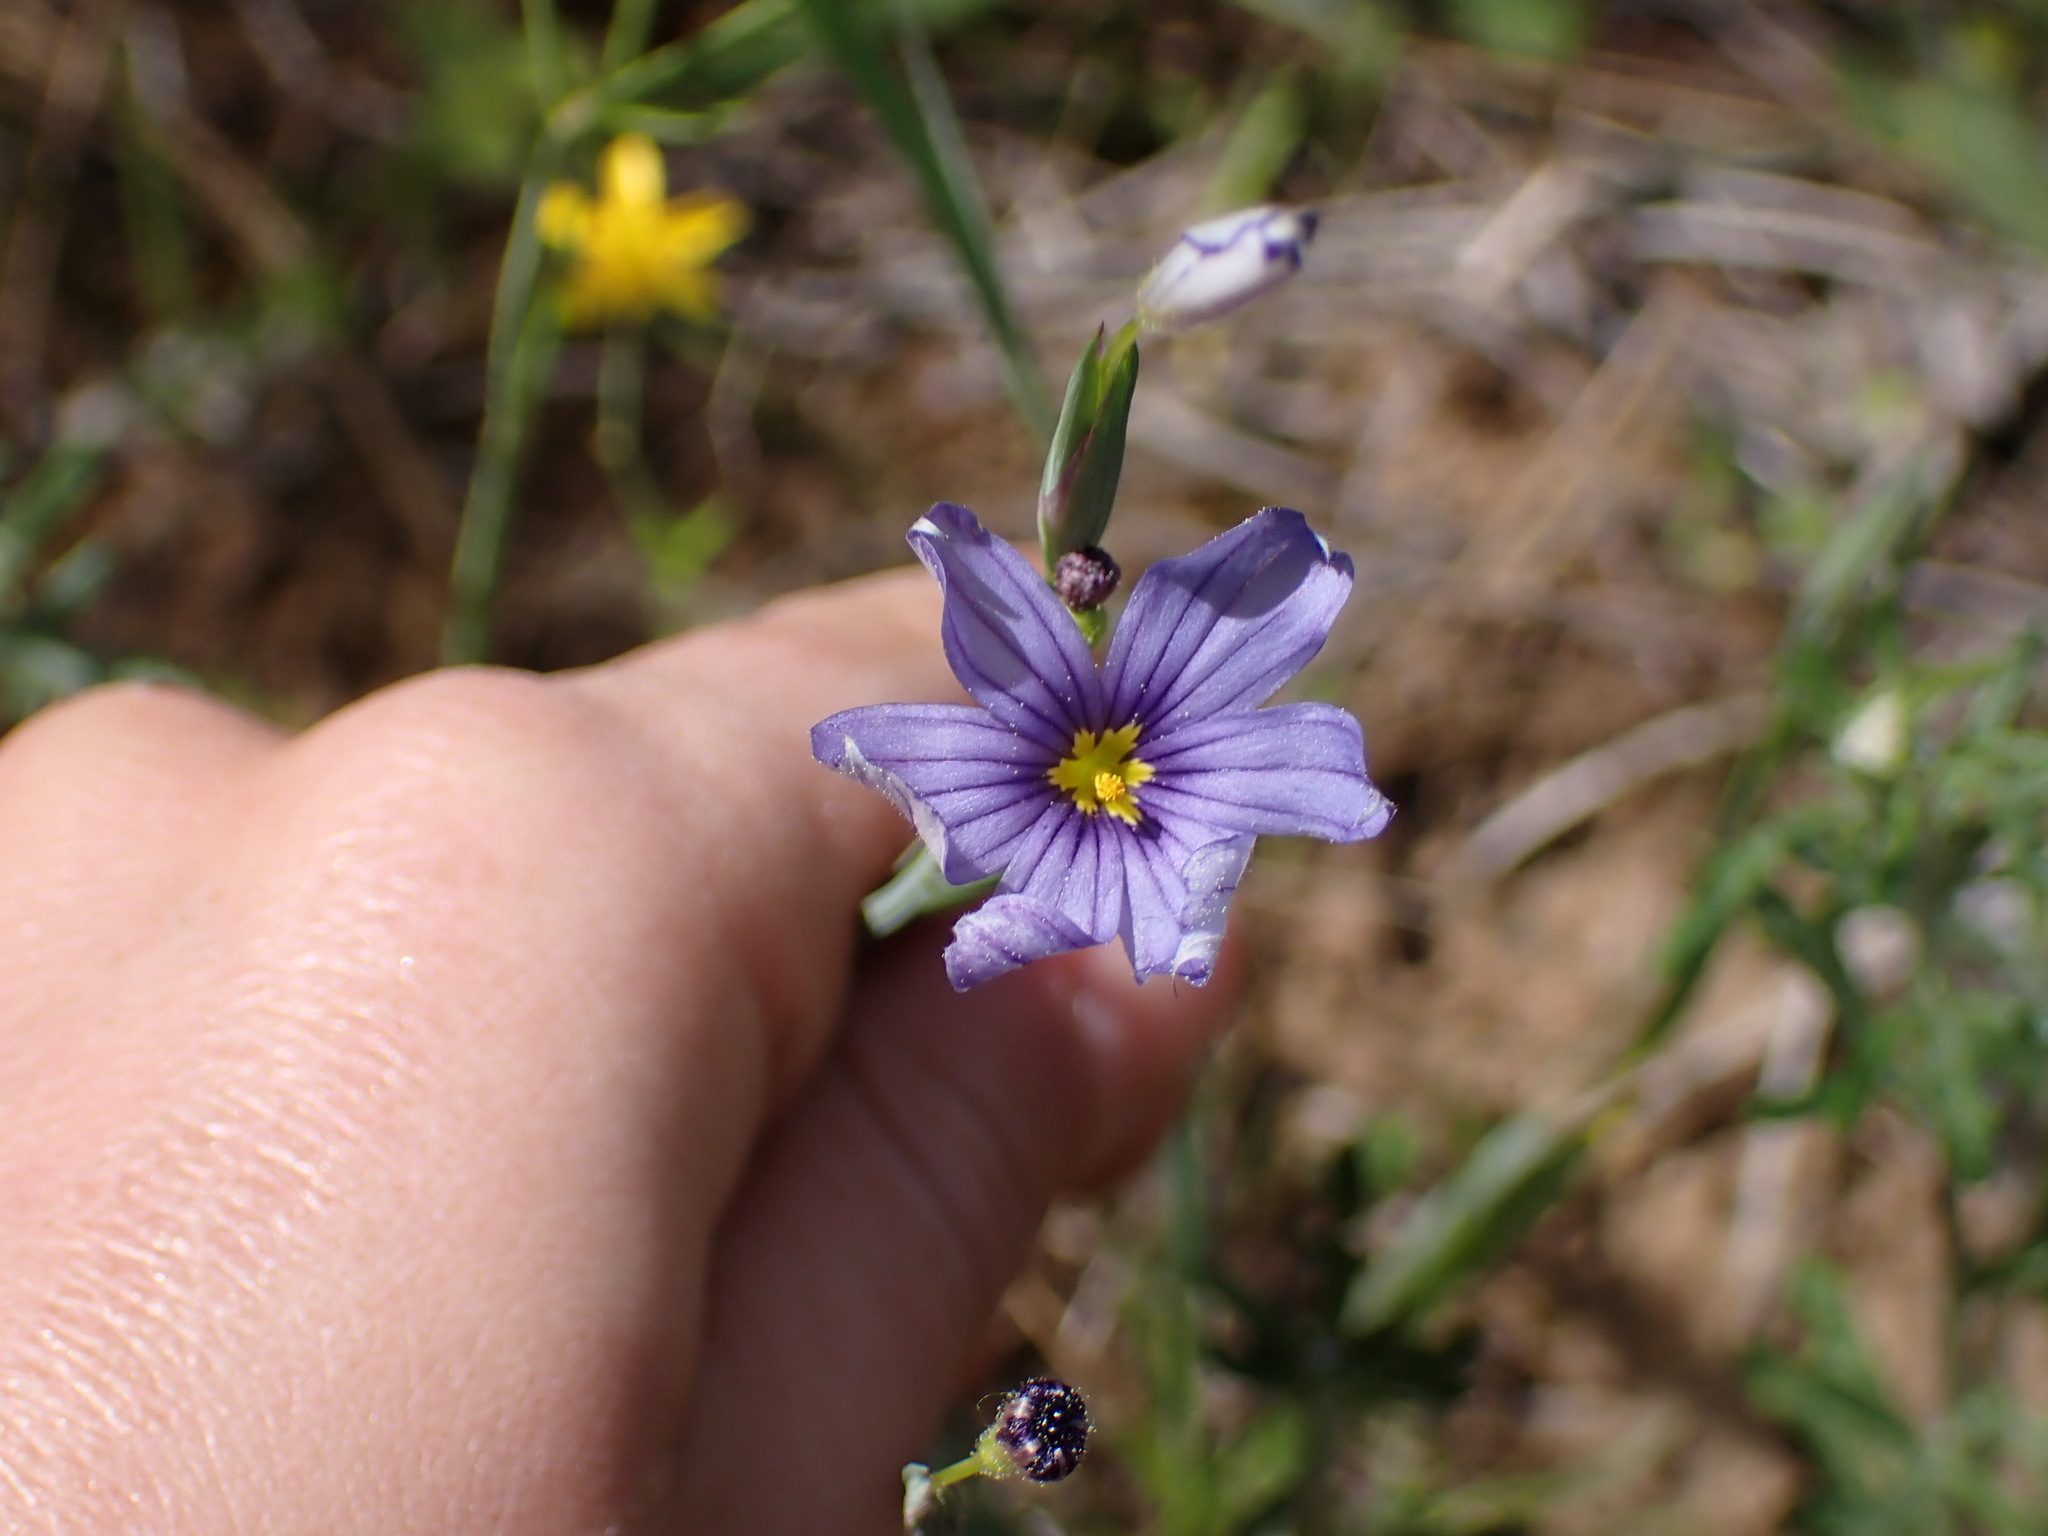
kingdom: Plantae
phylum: Tracheophyta
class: Liliopsida
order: Asparagales
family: Iridaceae
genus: Sisyrinchium
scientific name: Sisyrinchium bellum
